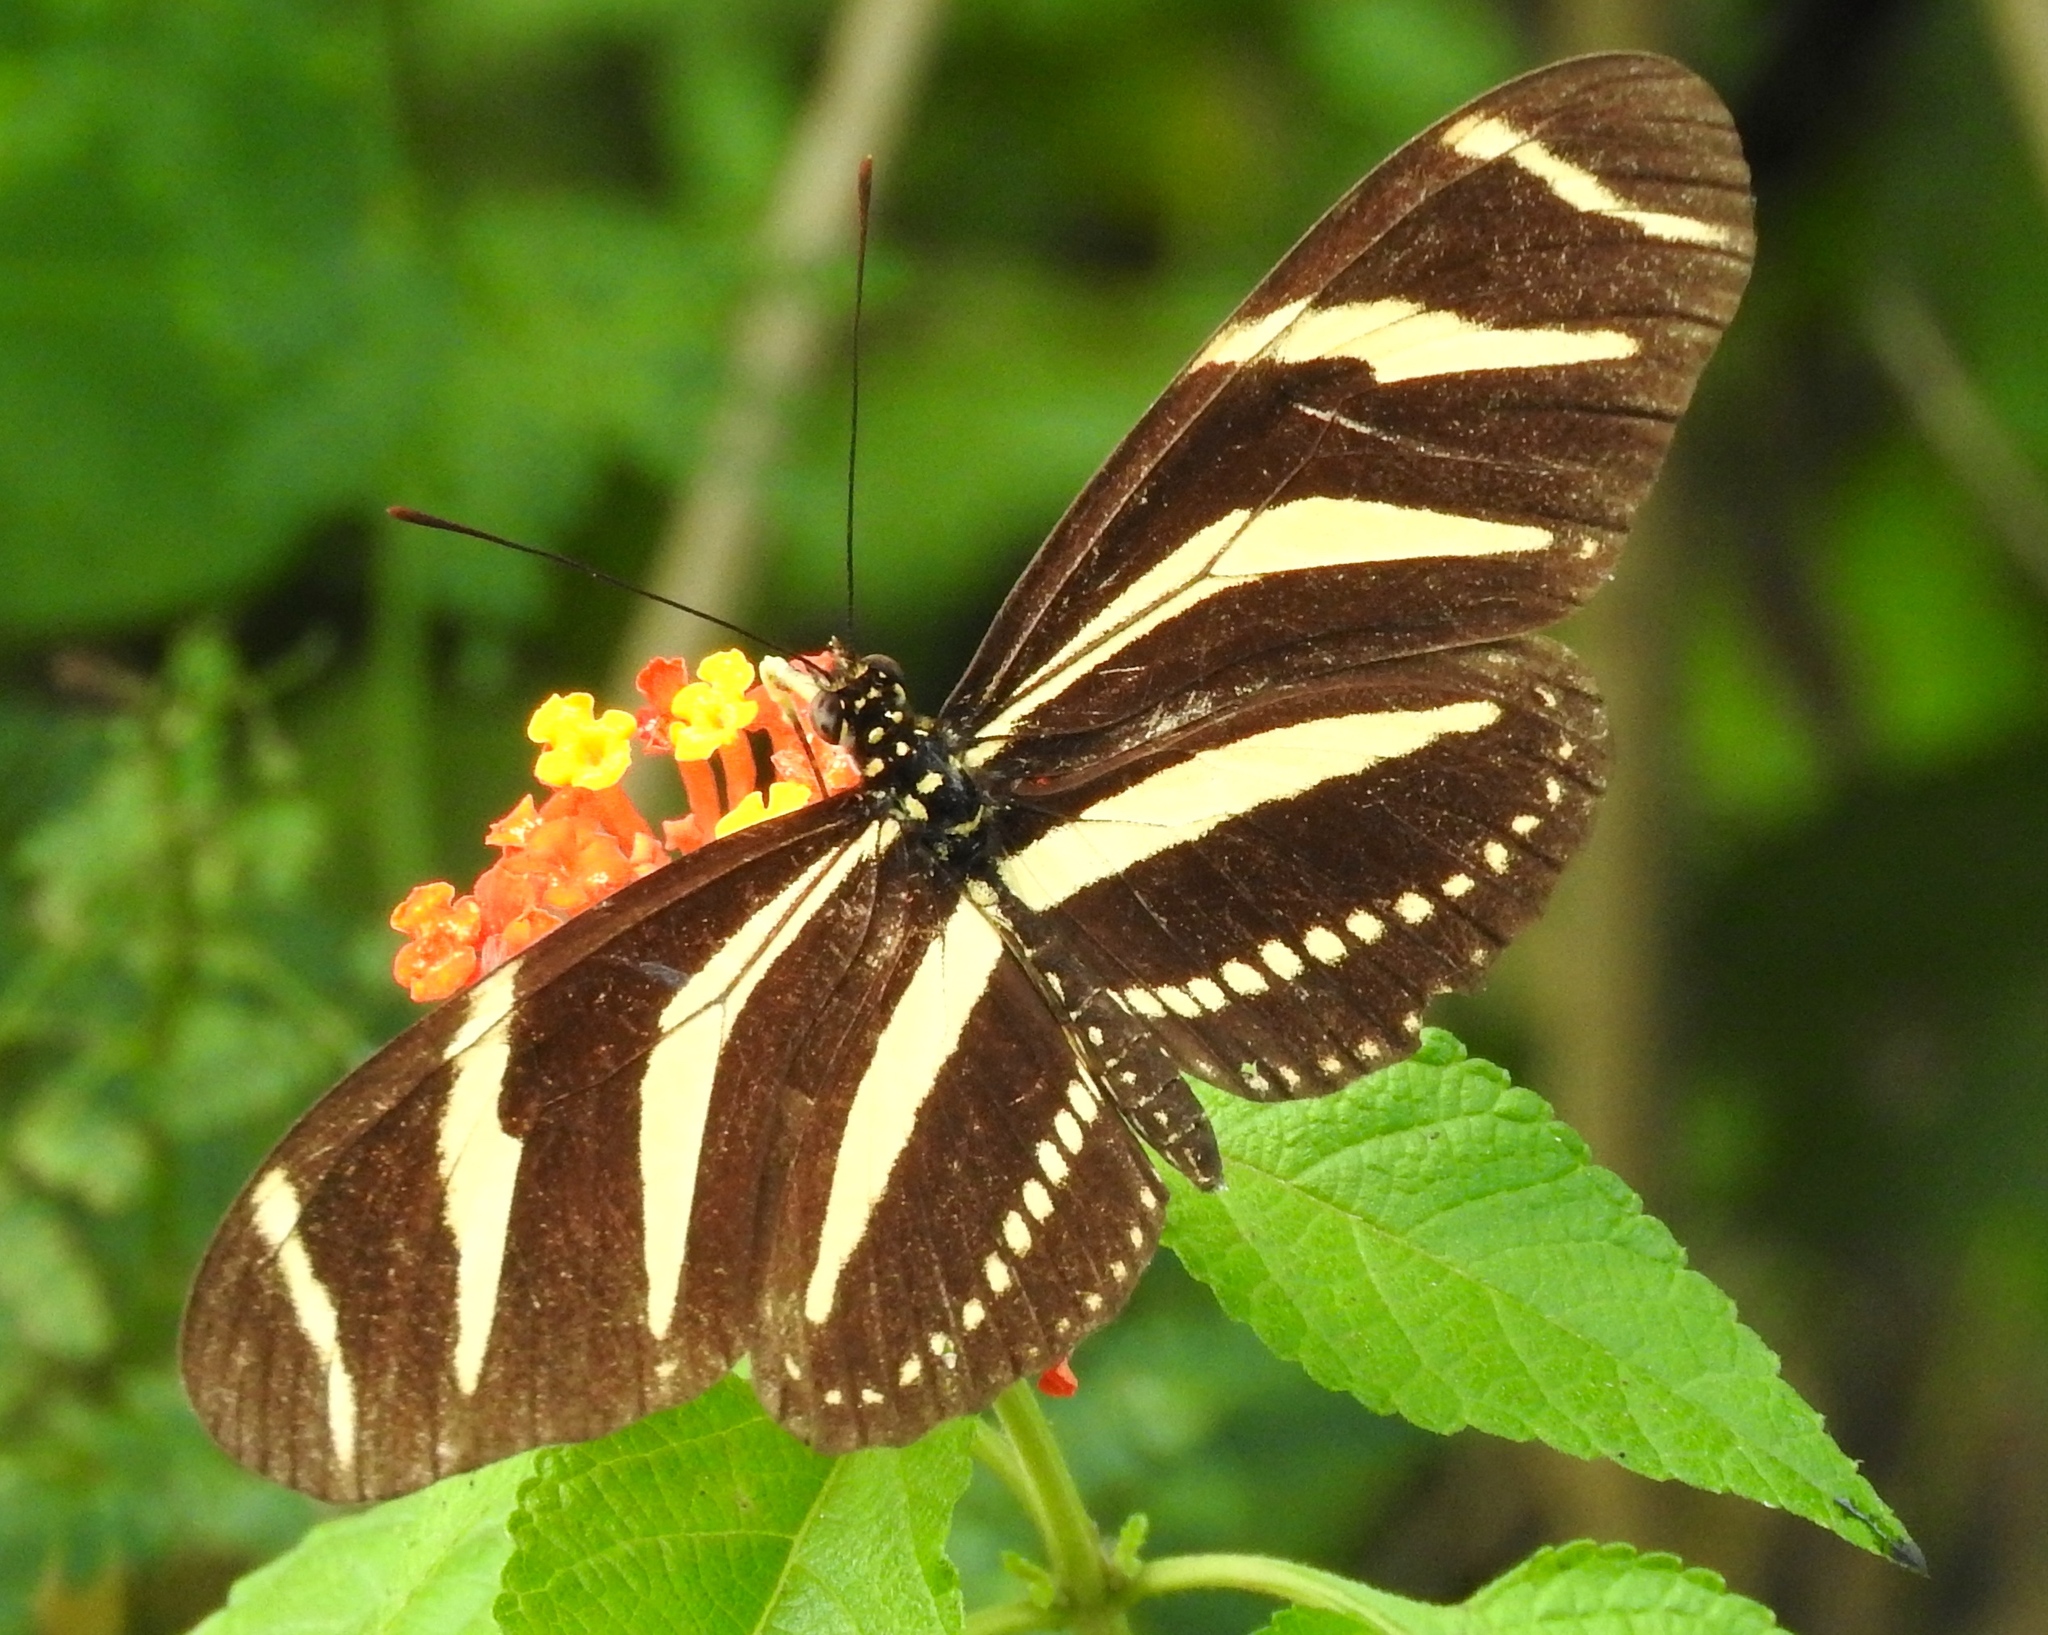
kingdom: Animalia
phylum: Arthropoda
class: Insecta
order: Lepidoptera
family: Nymphalidae
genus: Heliconius
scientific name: Heliconius charithonia
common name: Zebra long wing
